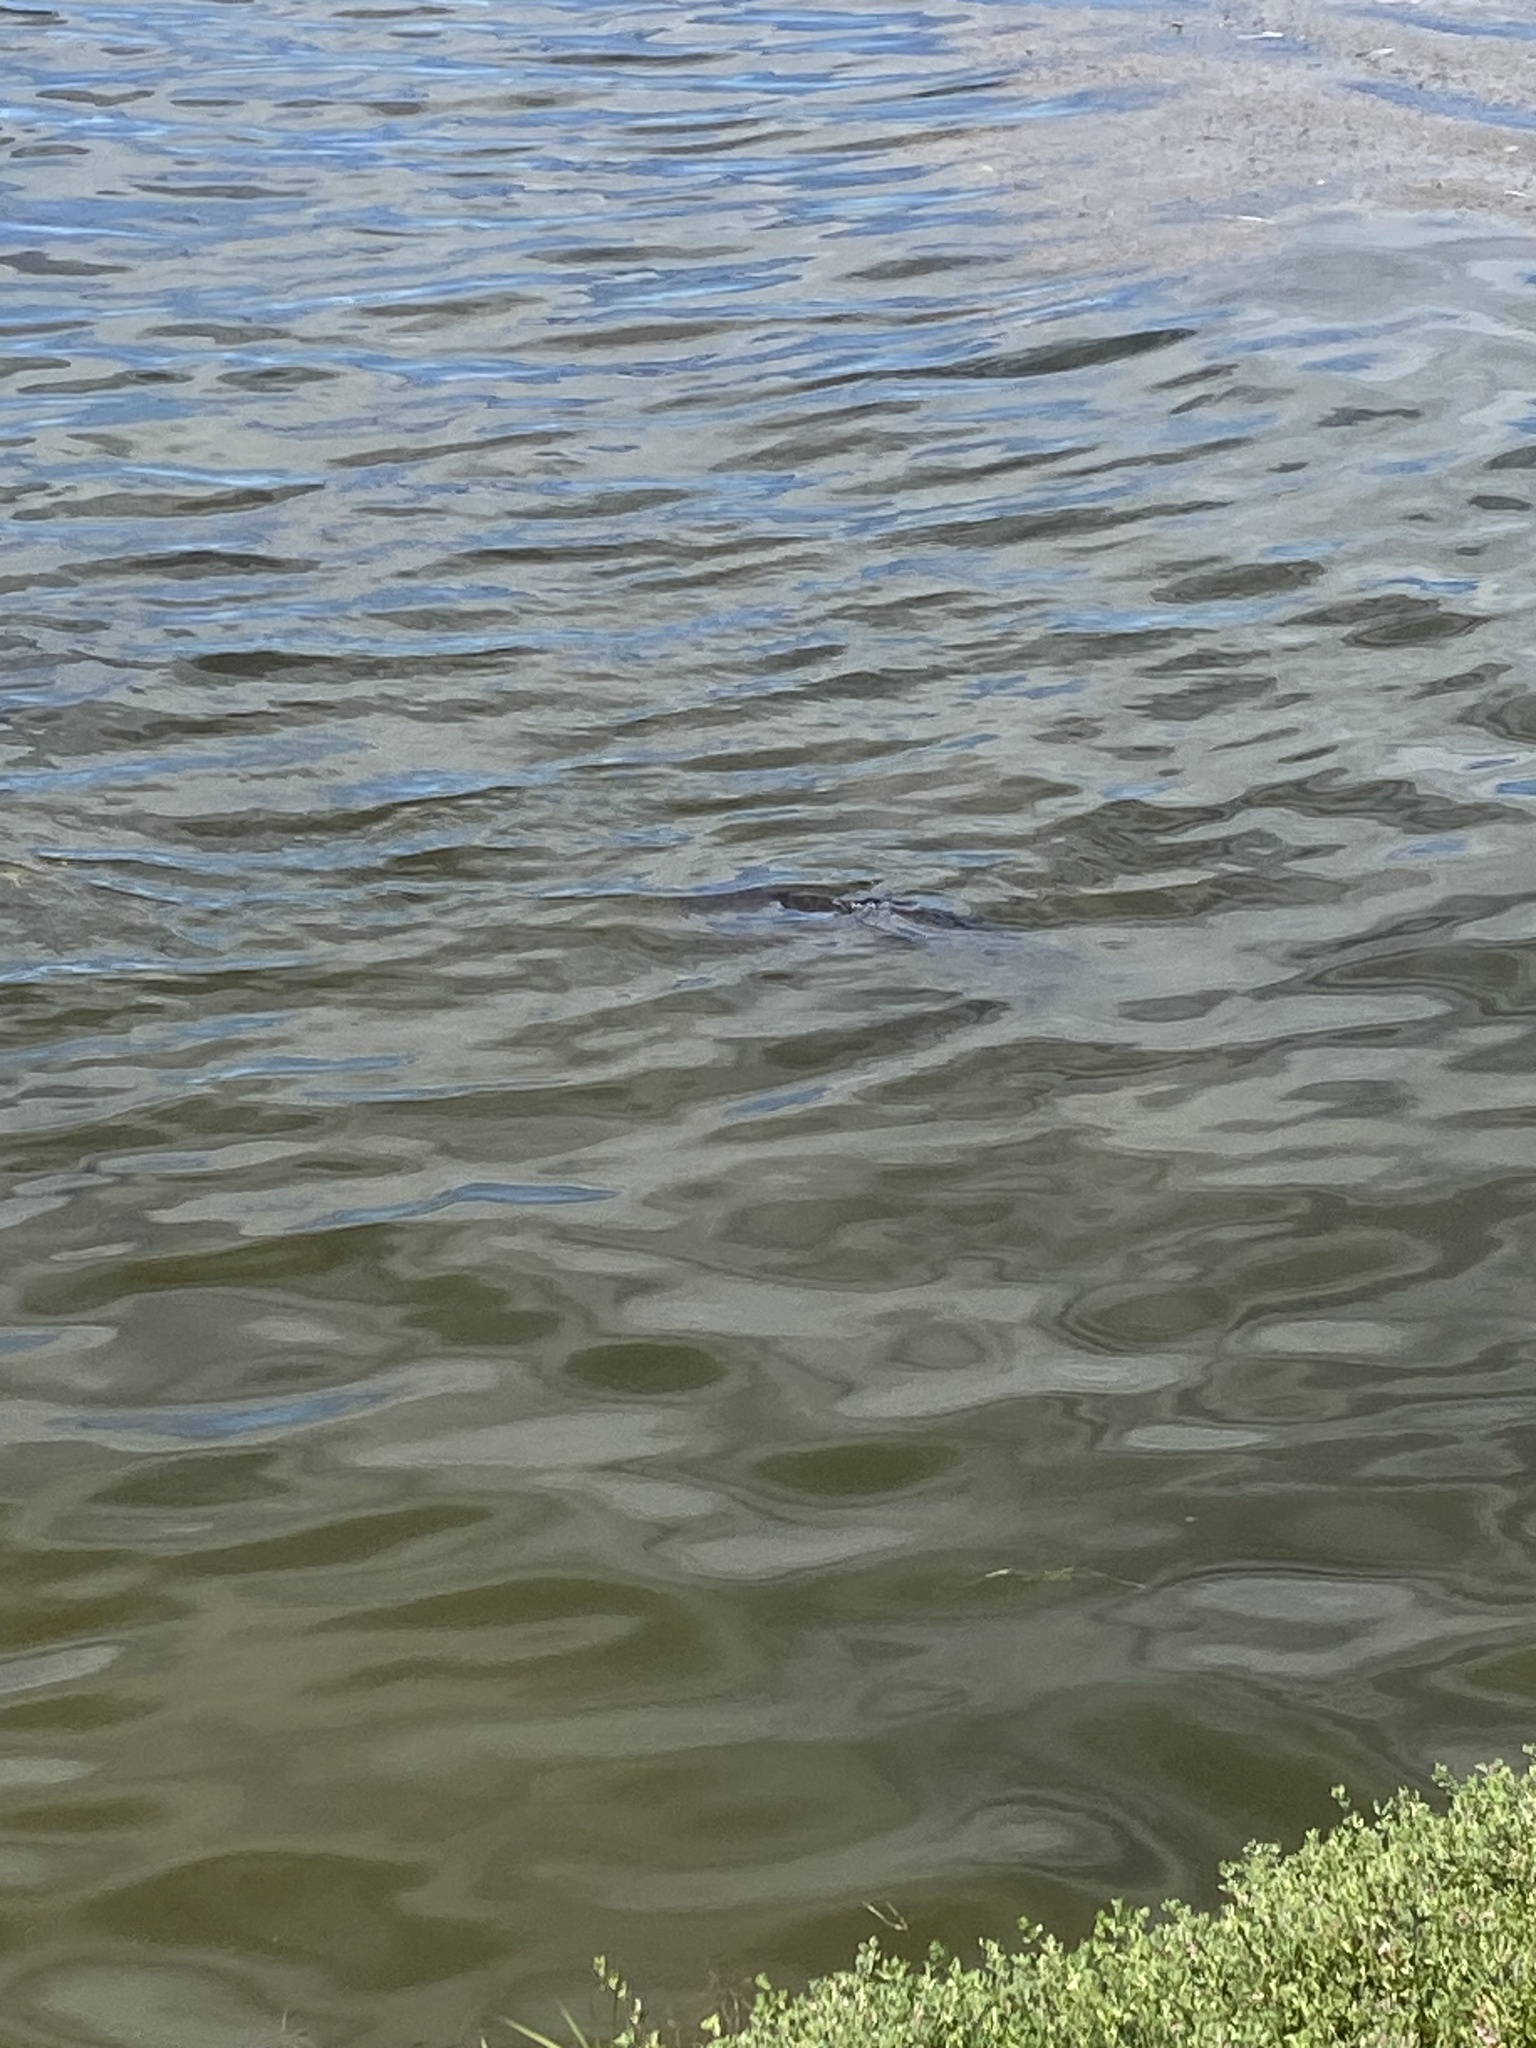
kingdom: Animalia
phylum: Chordata
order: Cypriniformes
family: Cyprinidae
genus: Cyprinus
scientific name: Cyprinus carpio
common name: Common carp
